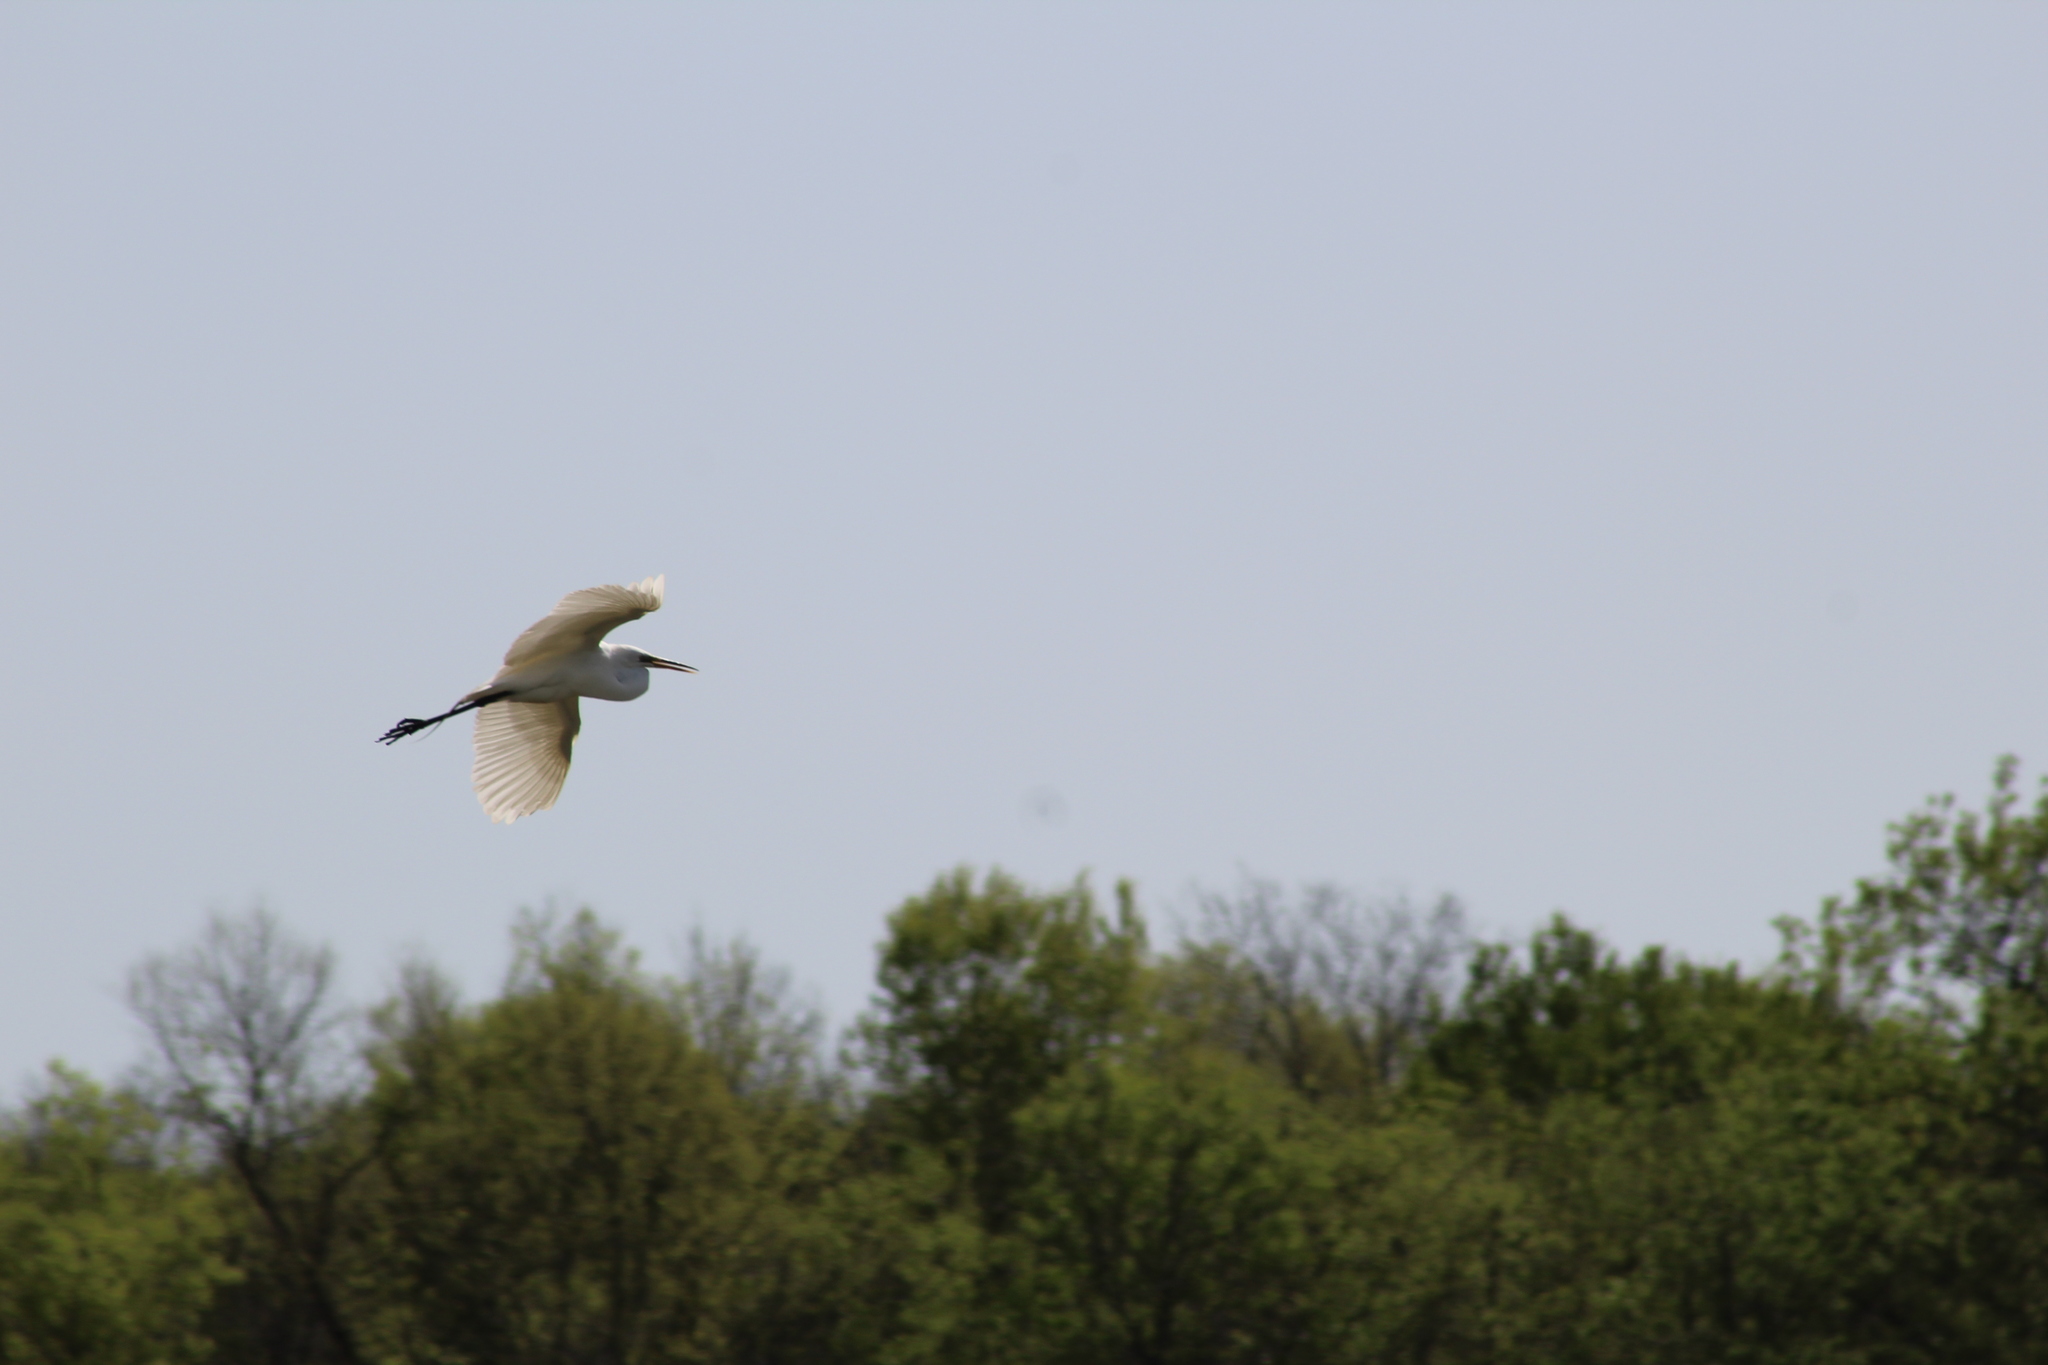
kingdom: Animalia
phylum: Chordata
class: Aves
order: Pelecaniformes
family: Ardeidae
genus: Ardea
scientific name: Ardea alba
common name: Great egret
